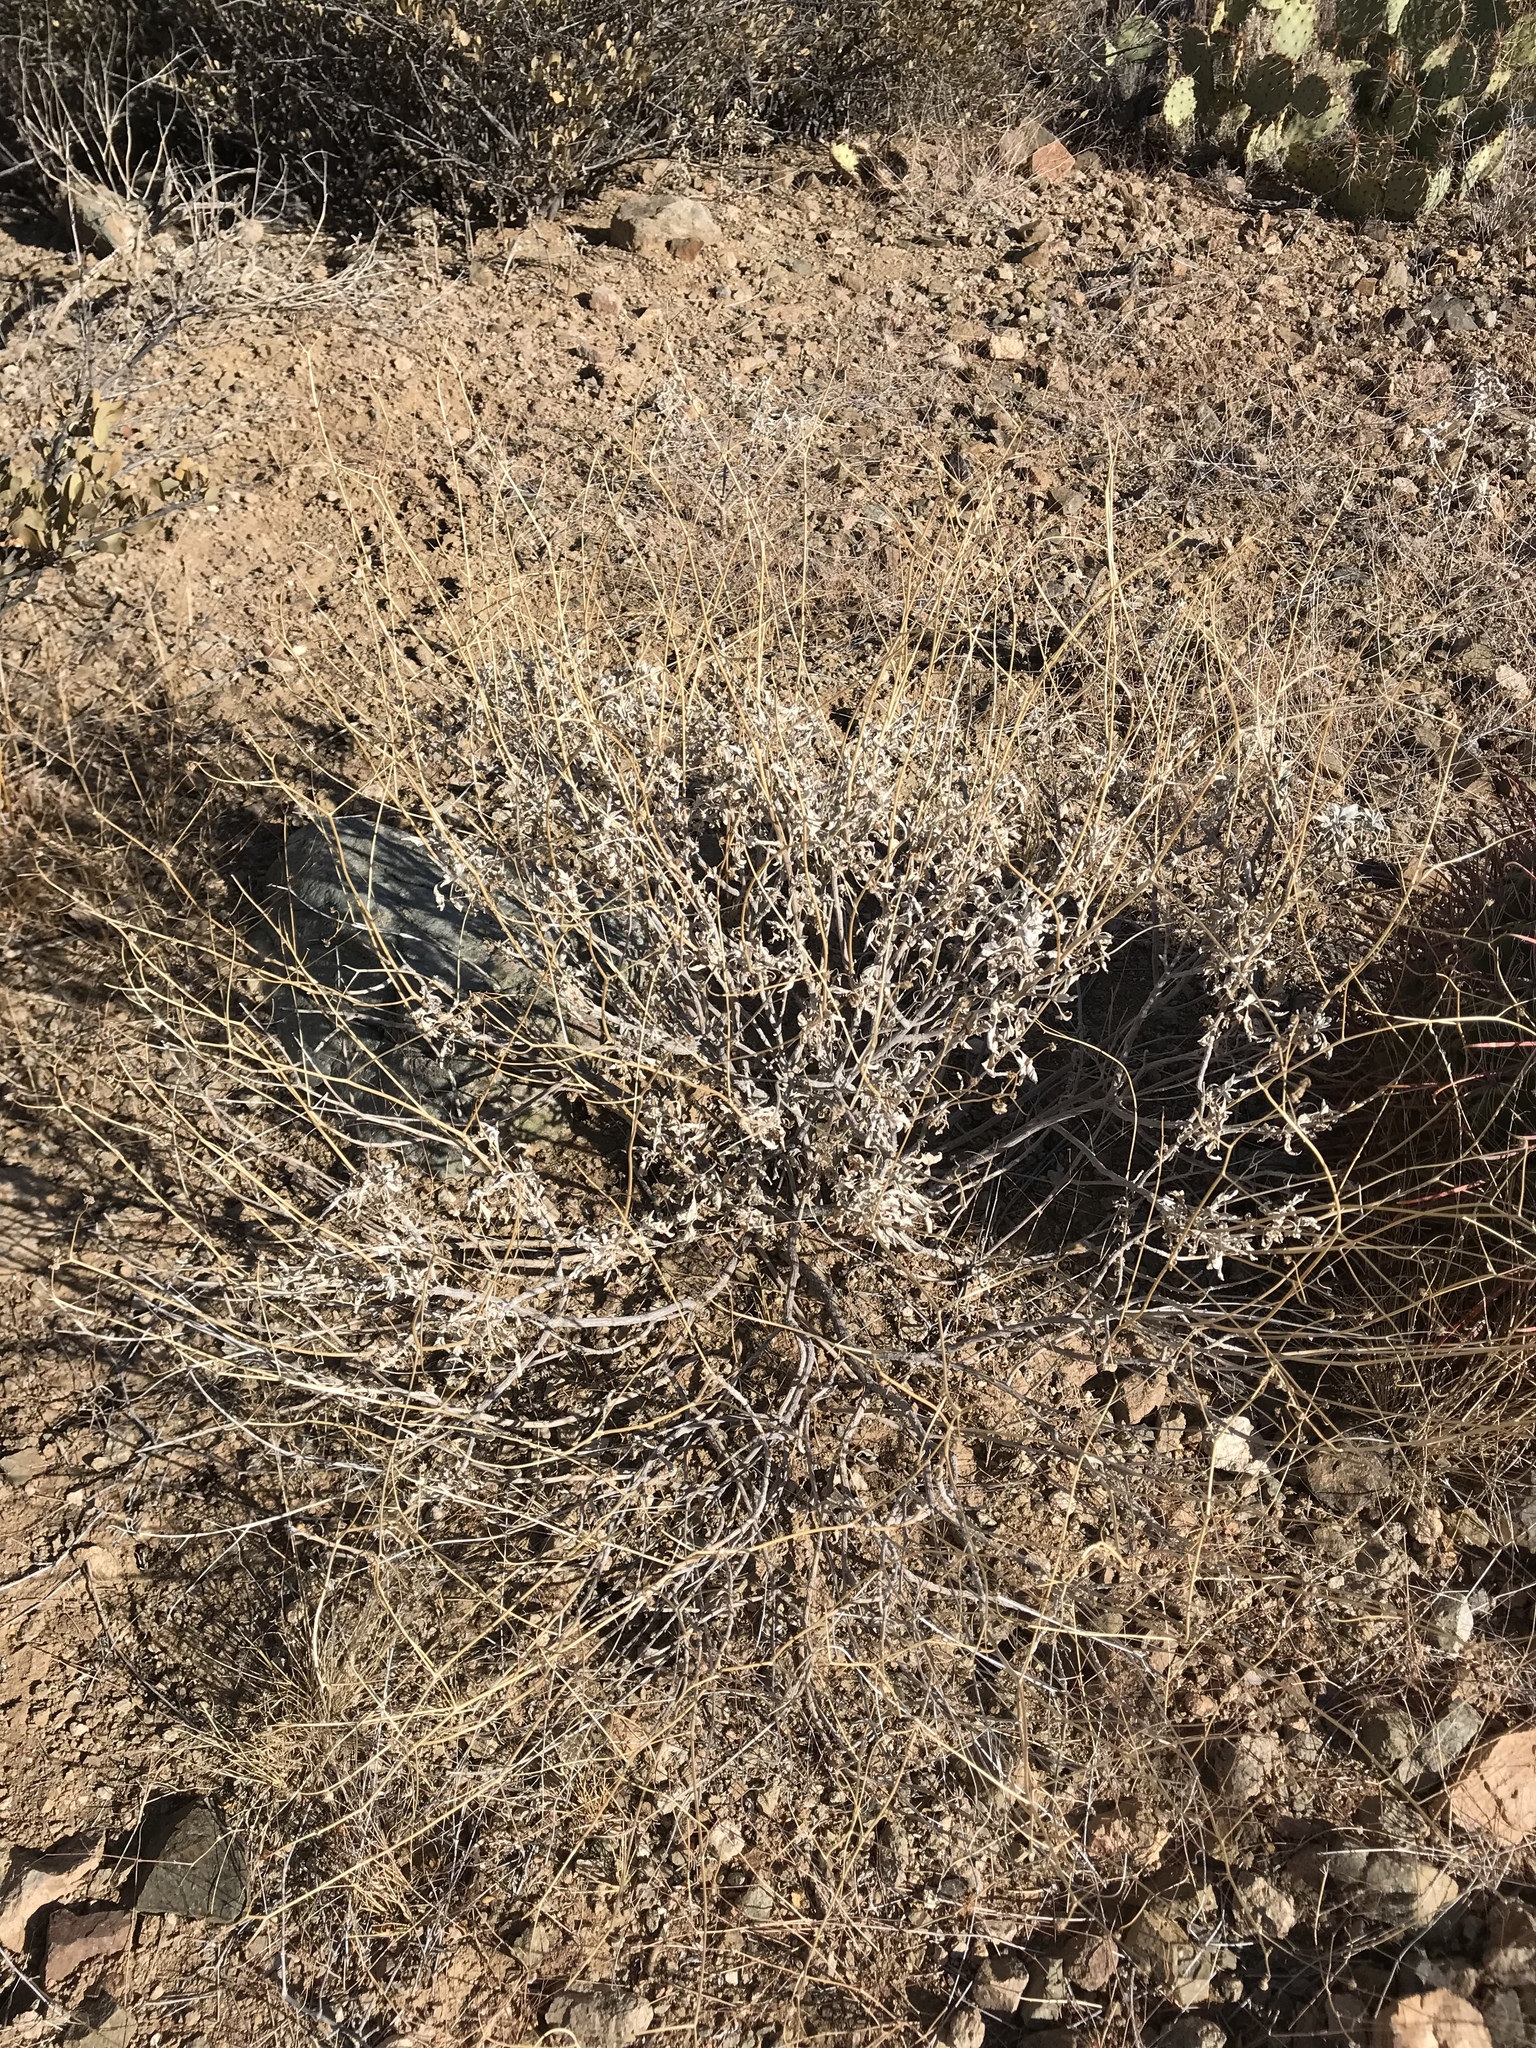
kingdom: Plantae
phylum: Tracheophyta
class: Magnoliopsida
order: Asterales
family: Asteraceae
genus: Encelia
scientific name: Encelia farinosa
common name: Brittlebush
